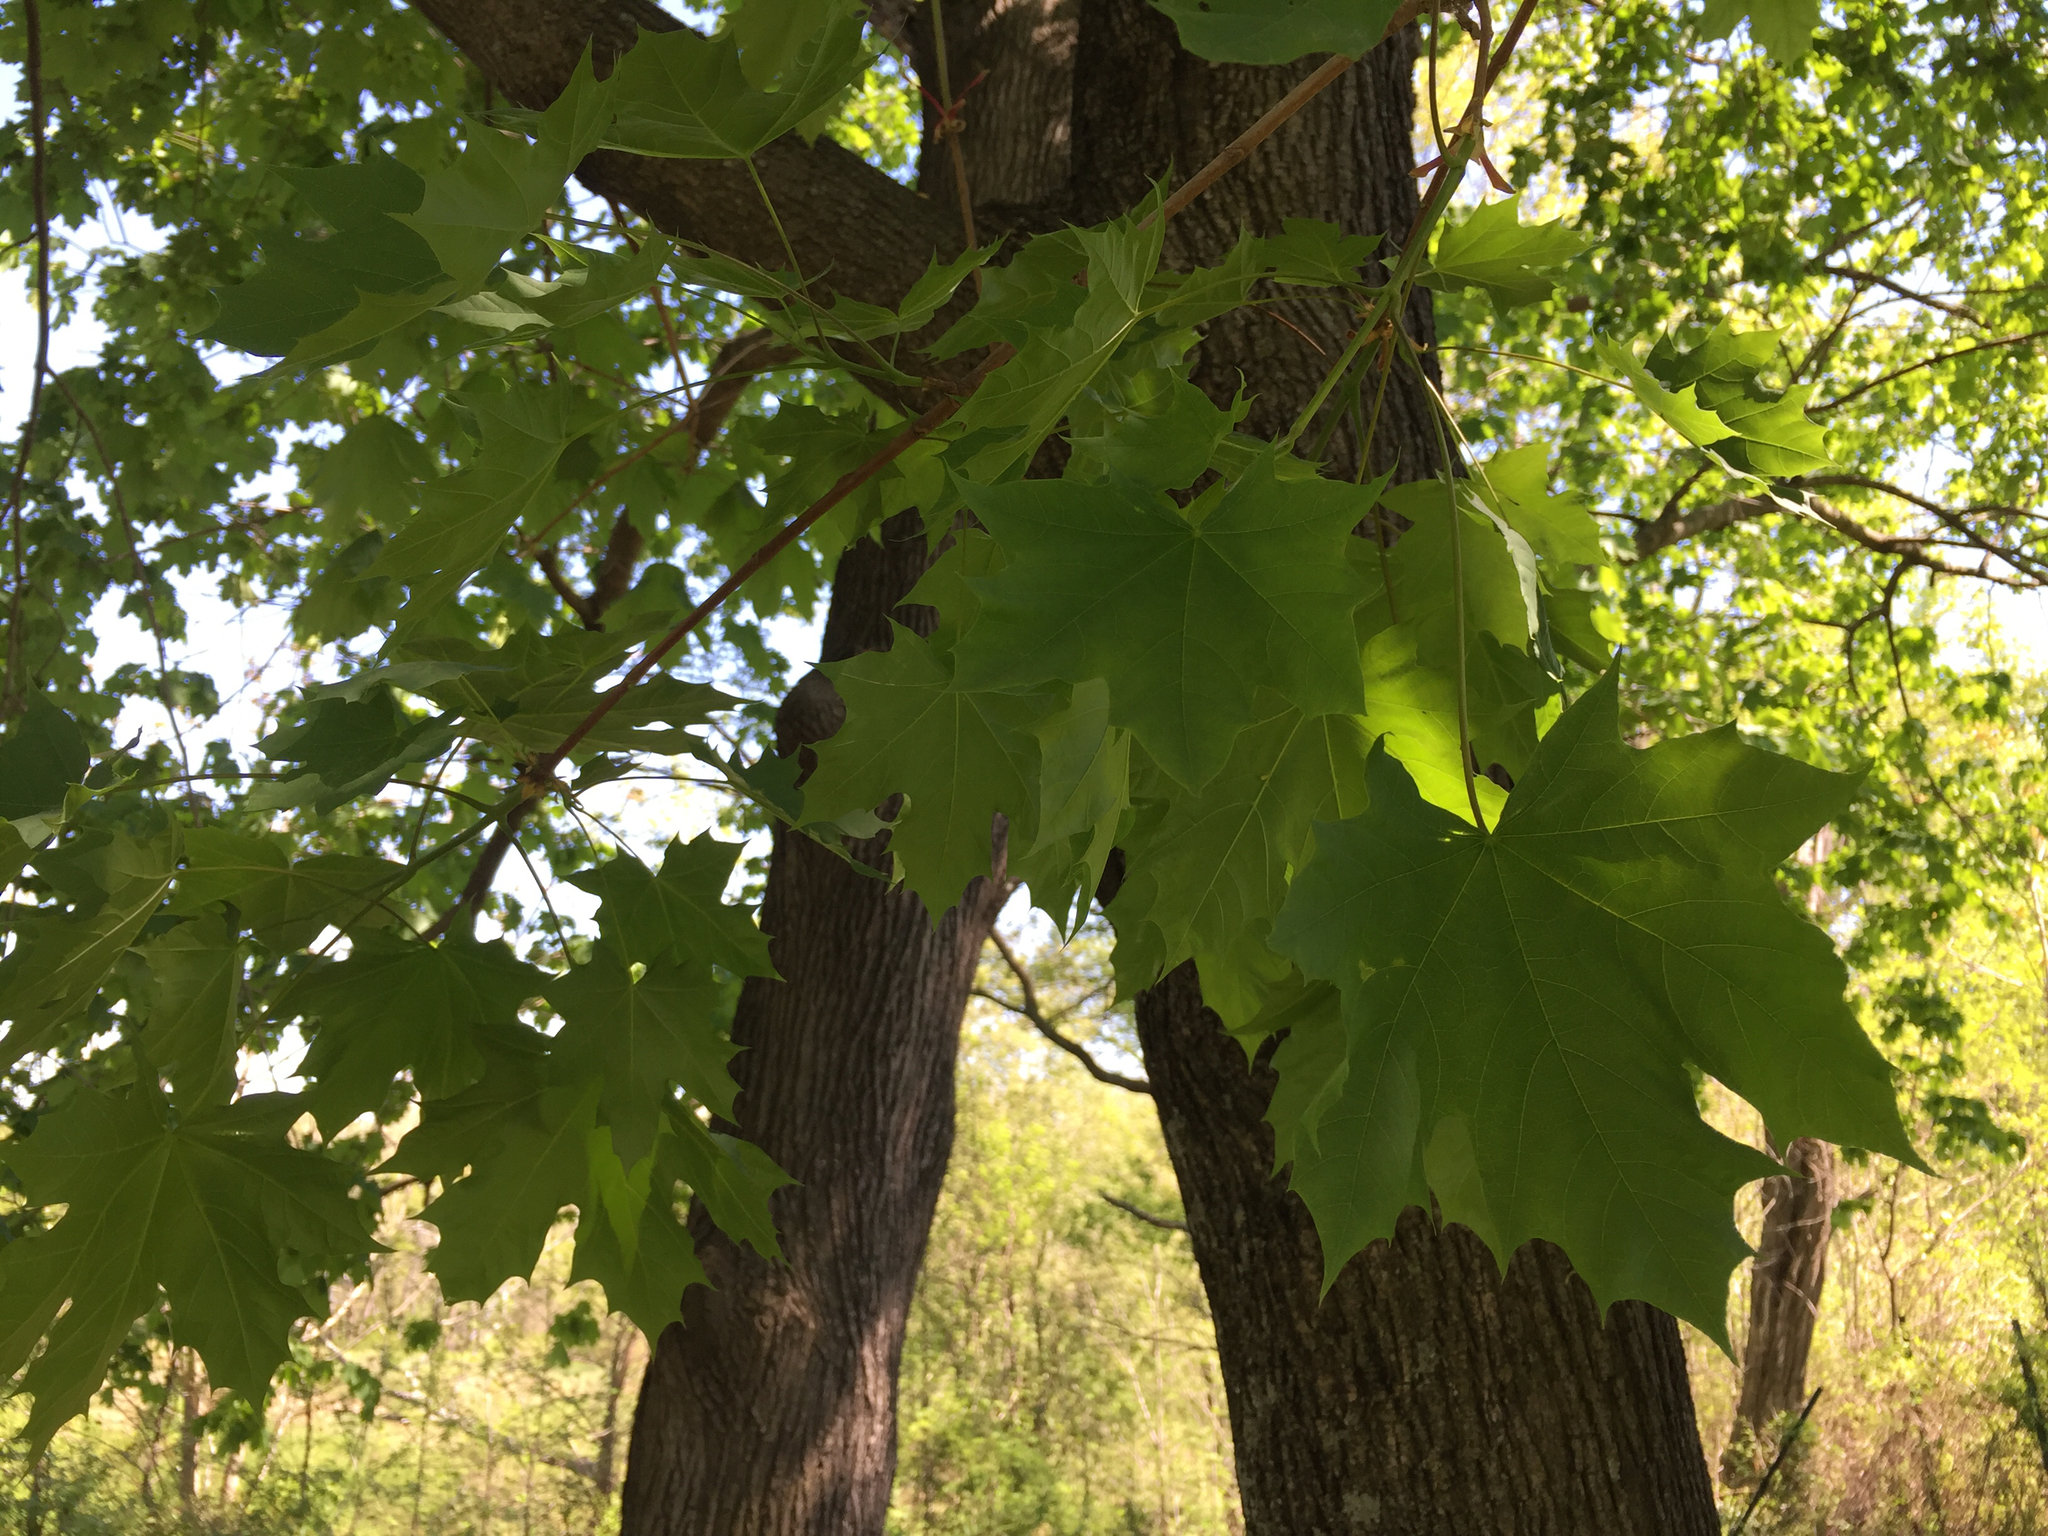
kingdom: Plantae
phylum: Tracheophyta
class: Magnoliopsida
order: Sapindales
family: Sapindaceae
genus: Acer
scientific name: Acer platanoides
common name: Norway maple
